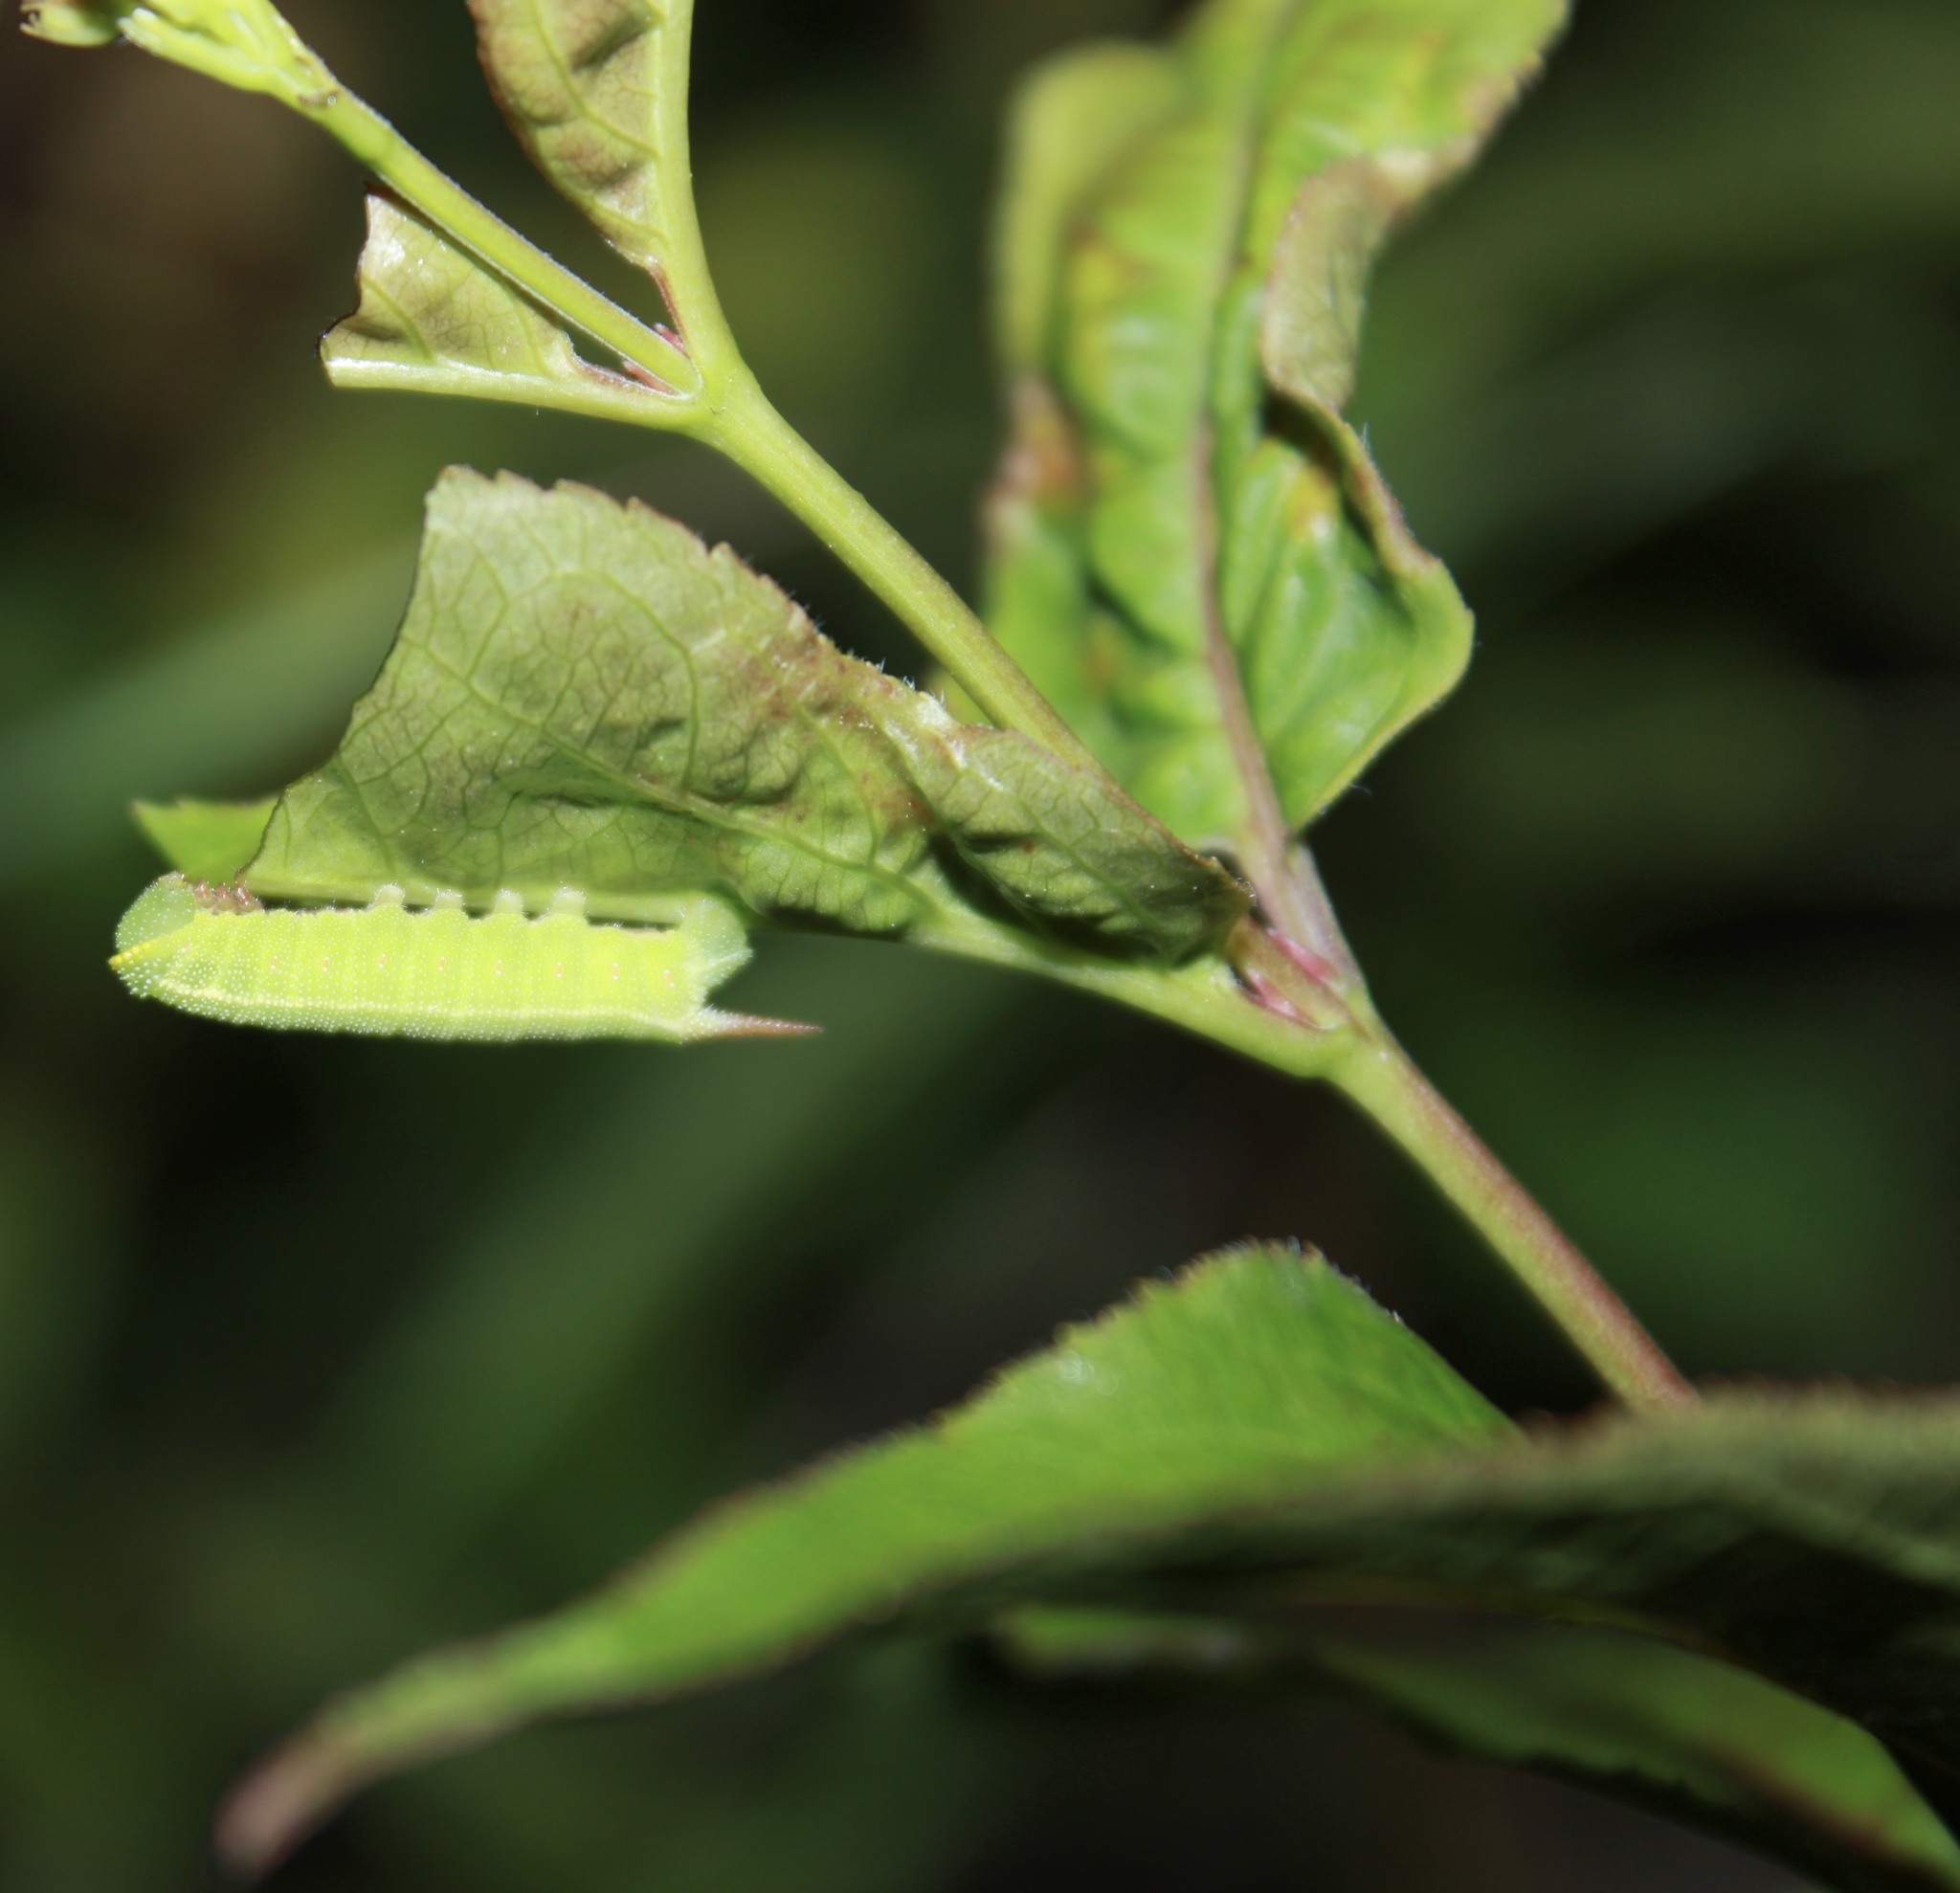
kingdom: Animalia
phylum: Arthropoda
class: Insecta
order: Lepidoptera
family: Sphingidae
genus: Hemaris
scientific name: Hemaris diffinis
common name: Bumblebee moth
